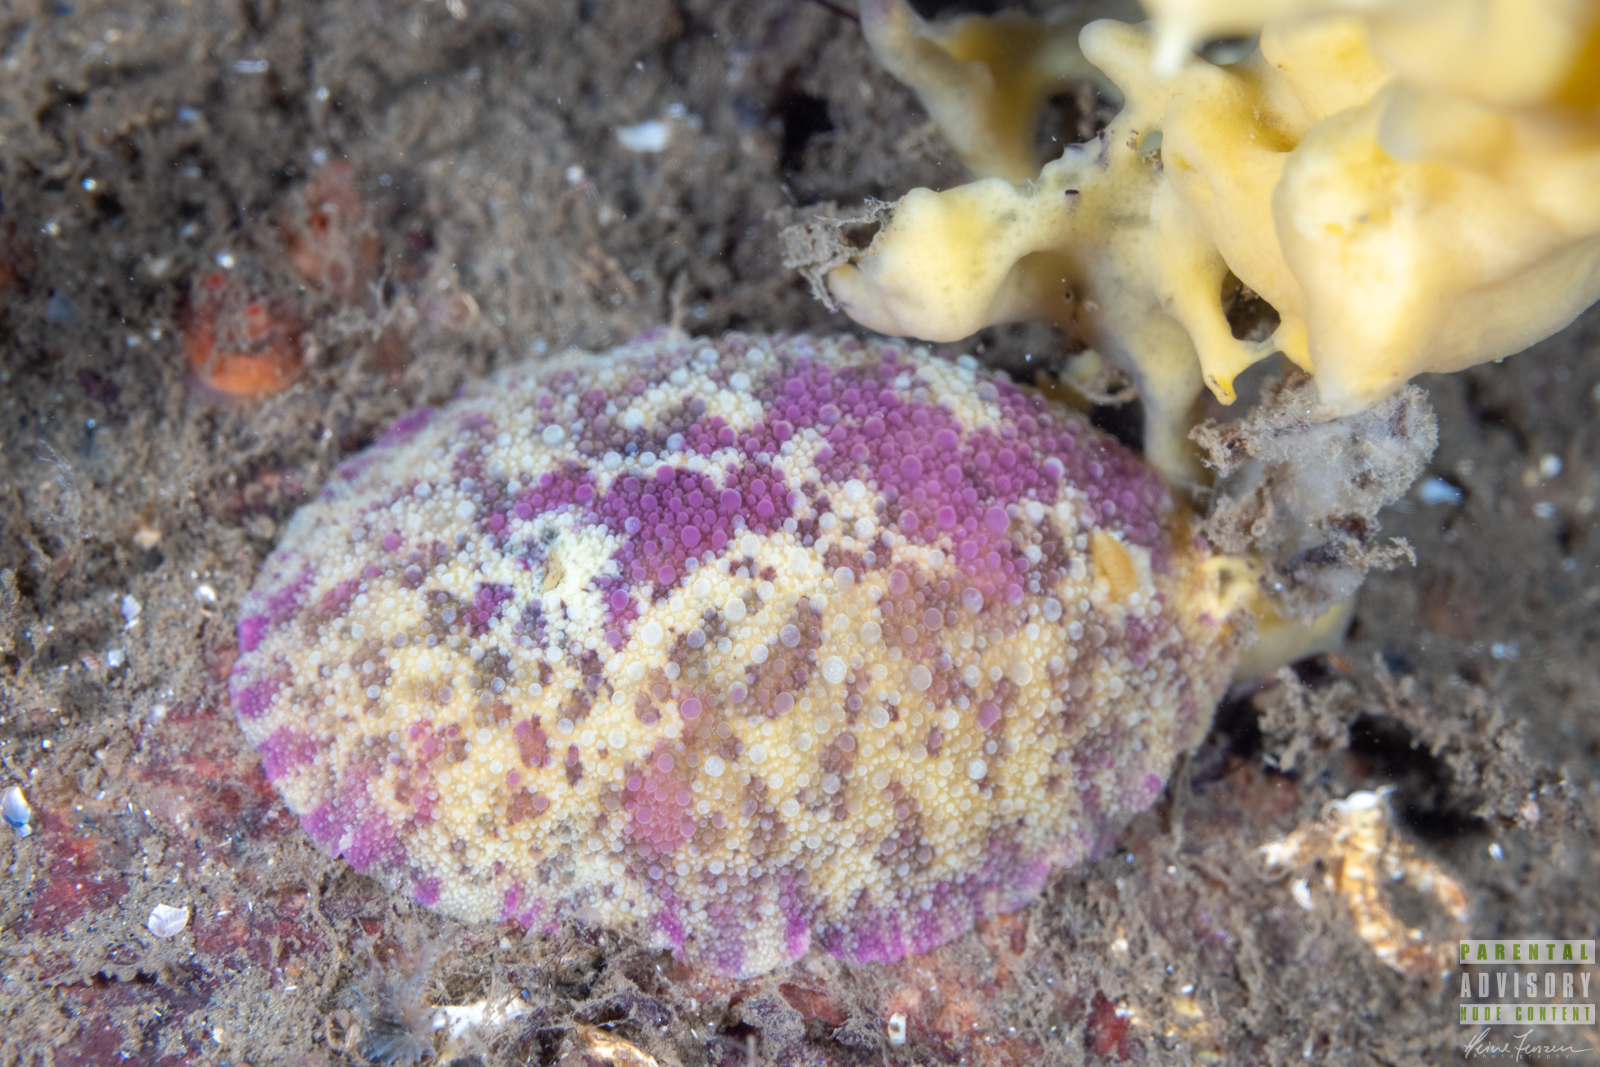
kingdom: Animalia
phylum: Mollusca
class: Gastropoda
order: Nudibranchia
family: Dorididae
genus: Doris
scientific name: Doris pseudoargus
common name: Sea lemon
